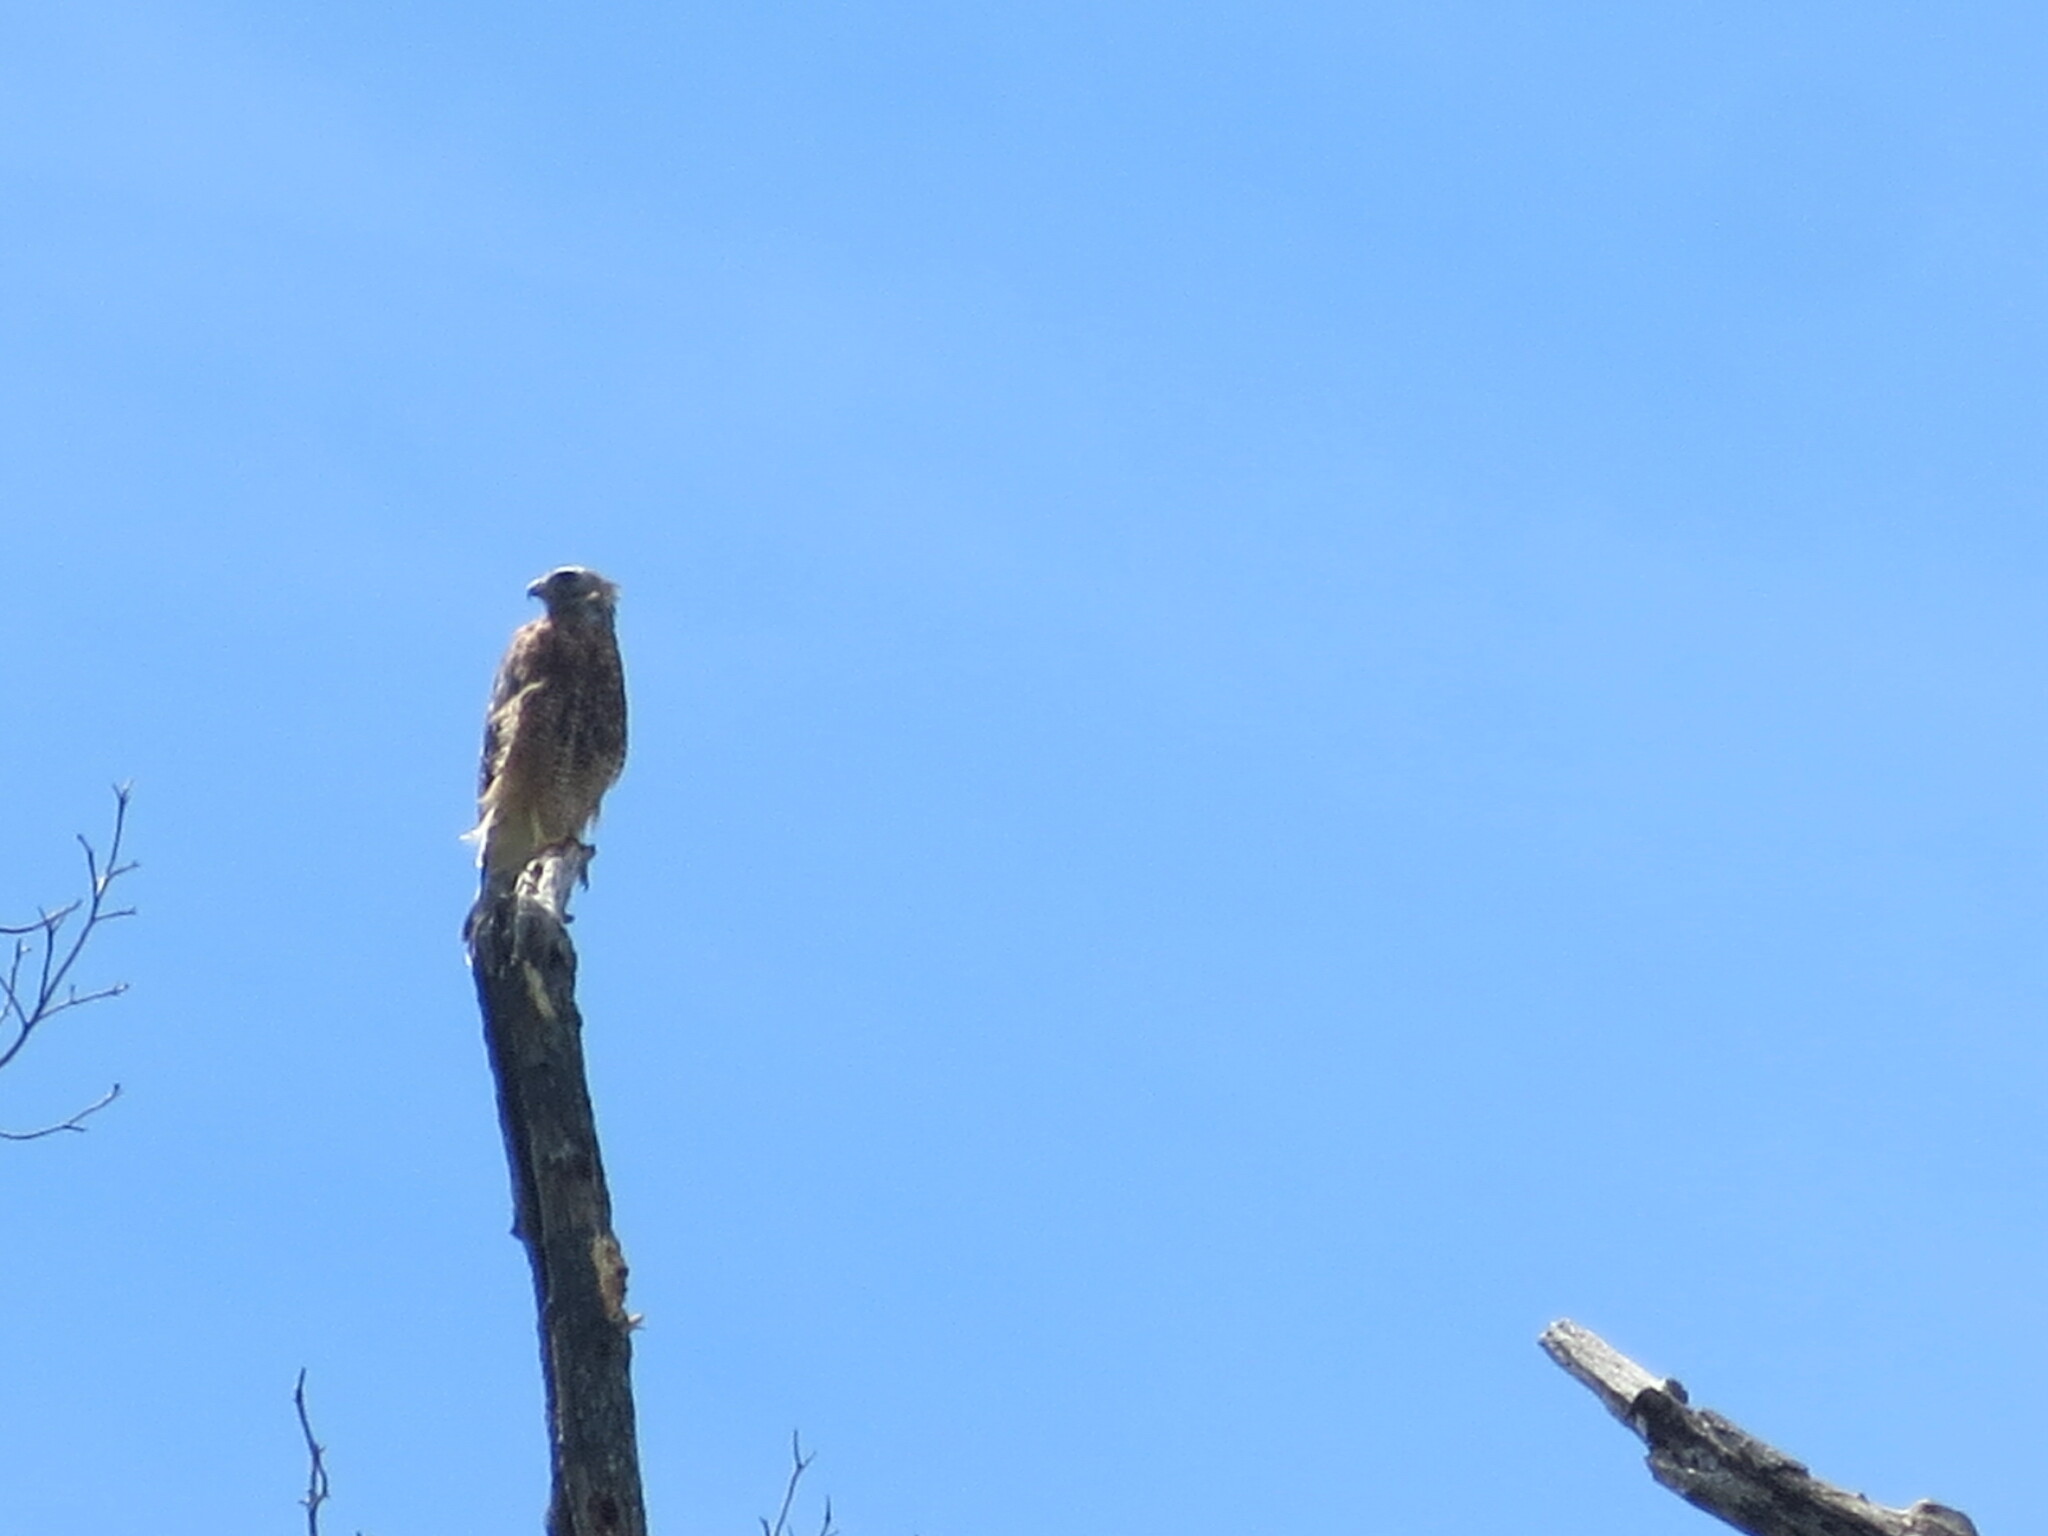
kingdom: Animalia
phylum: Chordata
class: Aves
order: Accipitriformes
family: Accipitridae
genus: Buteo
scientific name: Buteo lineatus
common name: Red-shouldered hawk
